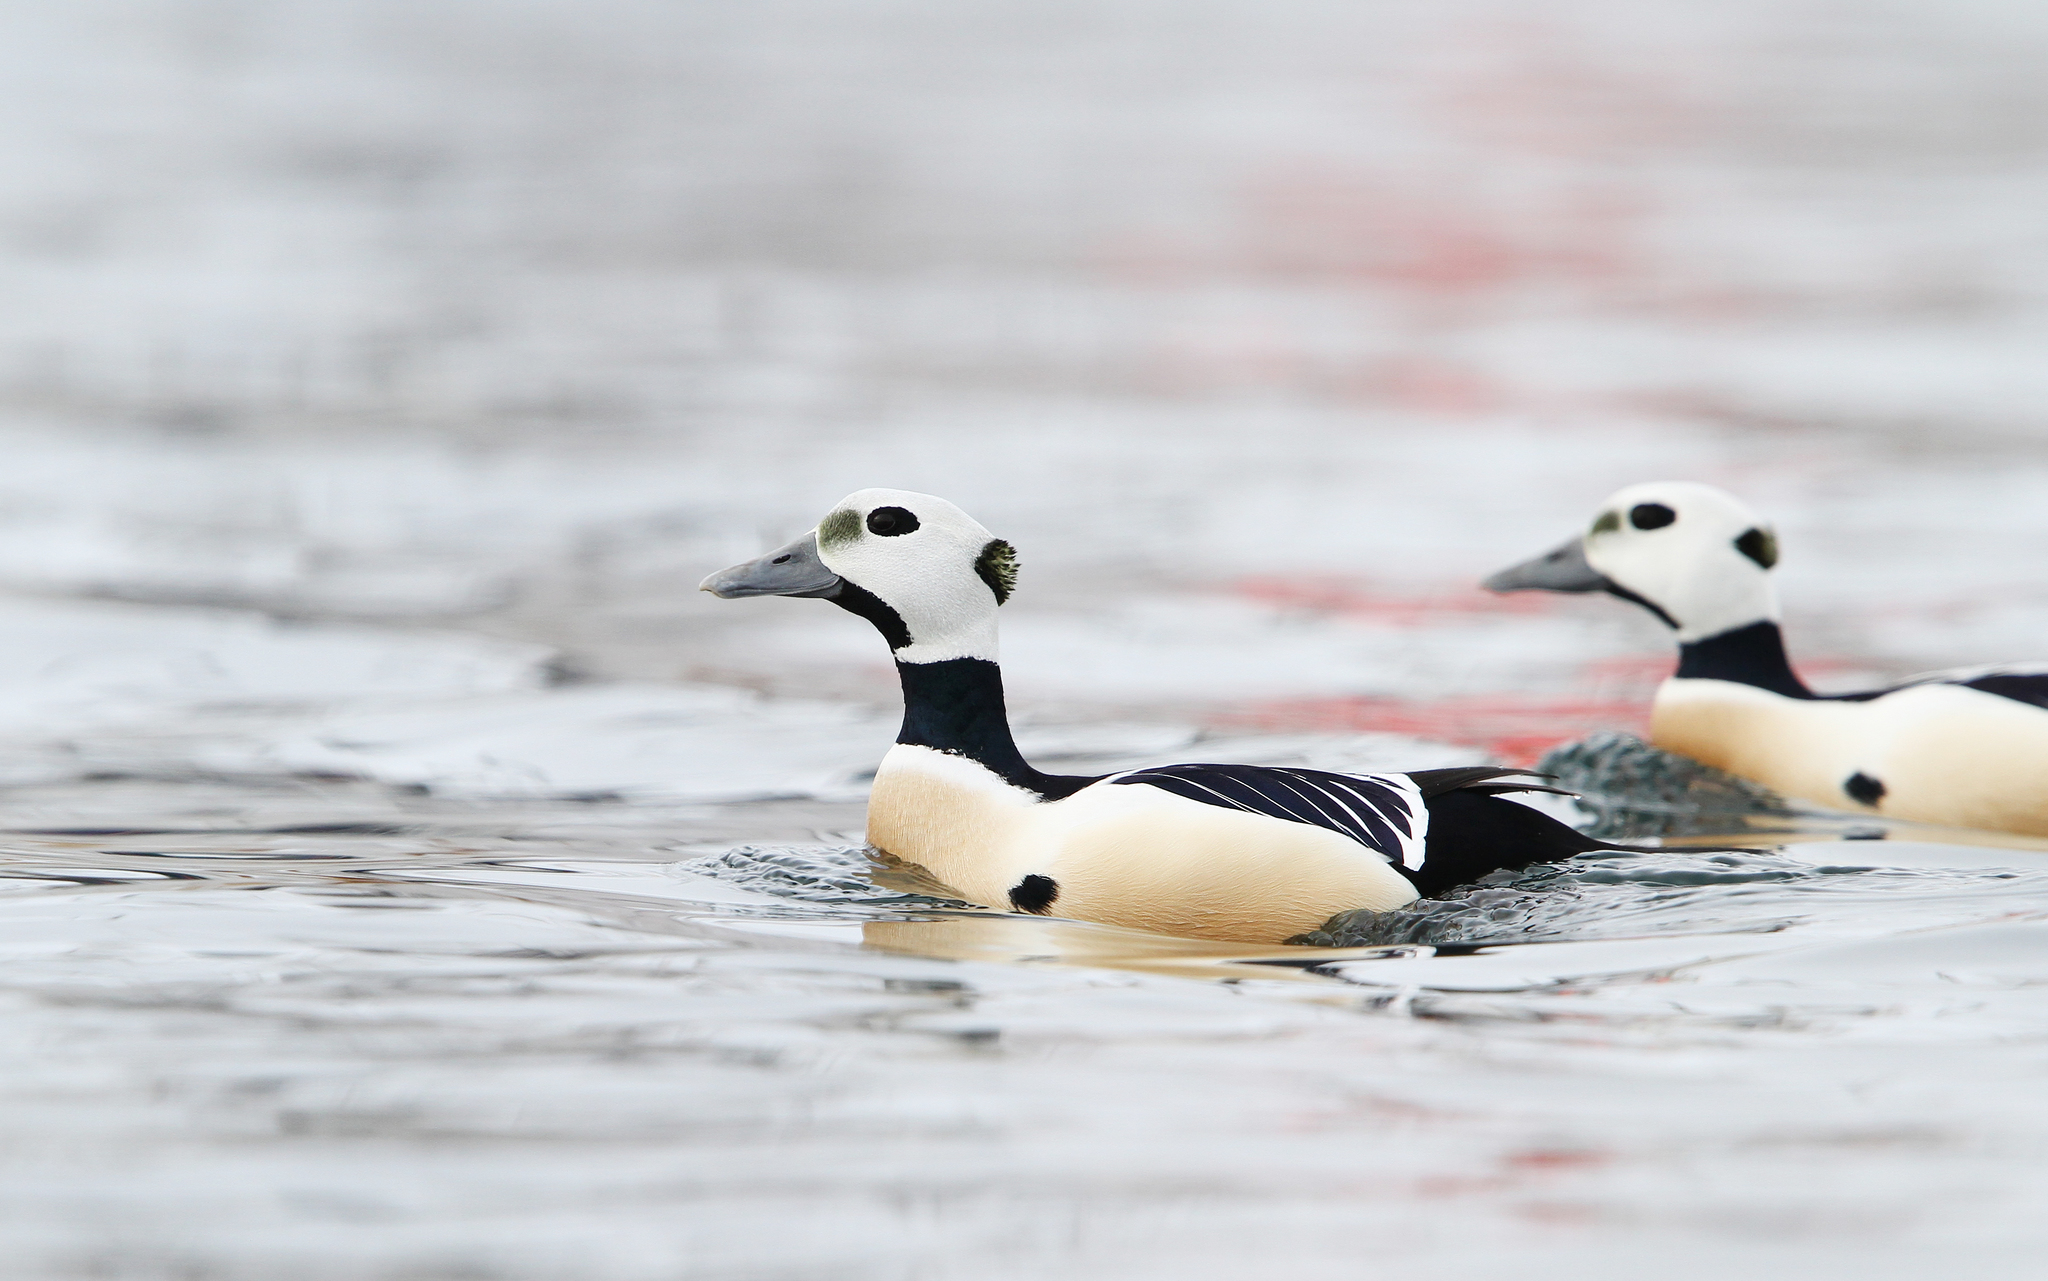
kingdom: Animalia
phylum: Chordata
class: Aves
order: Anseriformes
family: Anatidae
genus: Polysticta
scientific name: Polysticta stelleri
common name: Steller's eider
